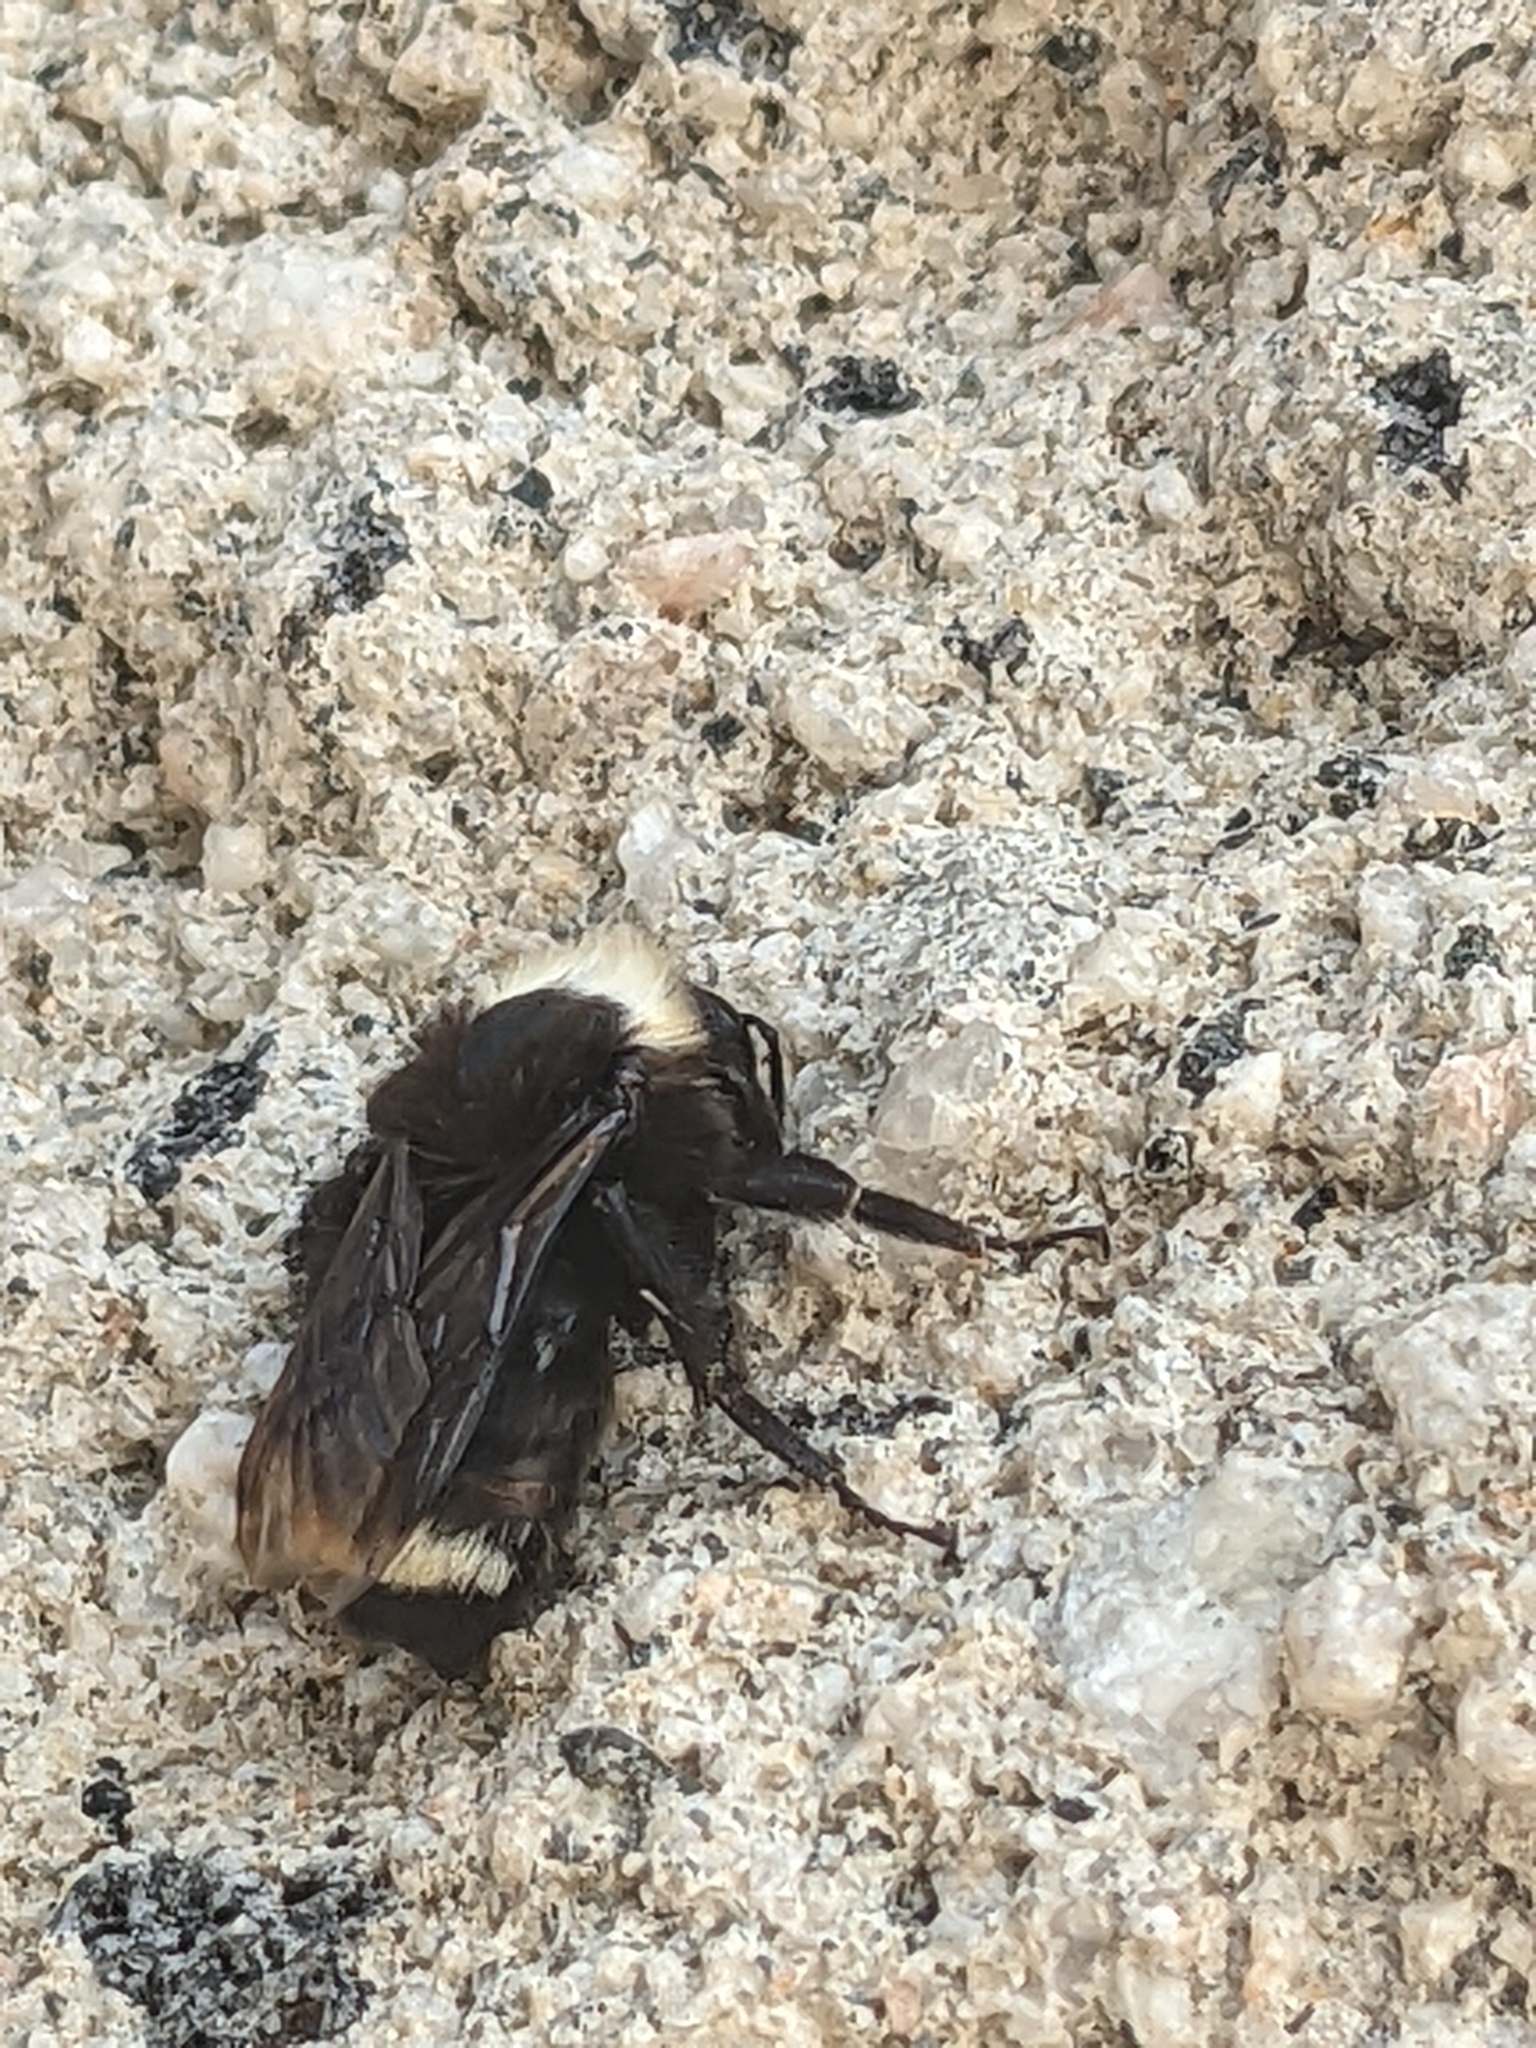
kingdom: Animalia
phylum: Arthropoda
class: Insecta
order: Hymenoptera
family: Apidae
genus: Bombus
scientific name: Bombus vosnesenskii
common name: Vosnesensky bumble bee
